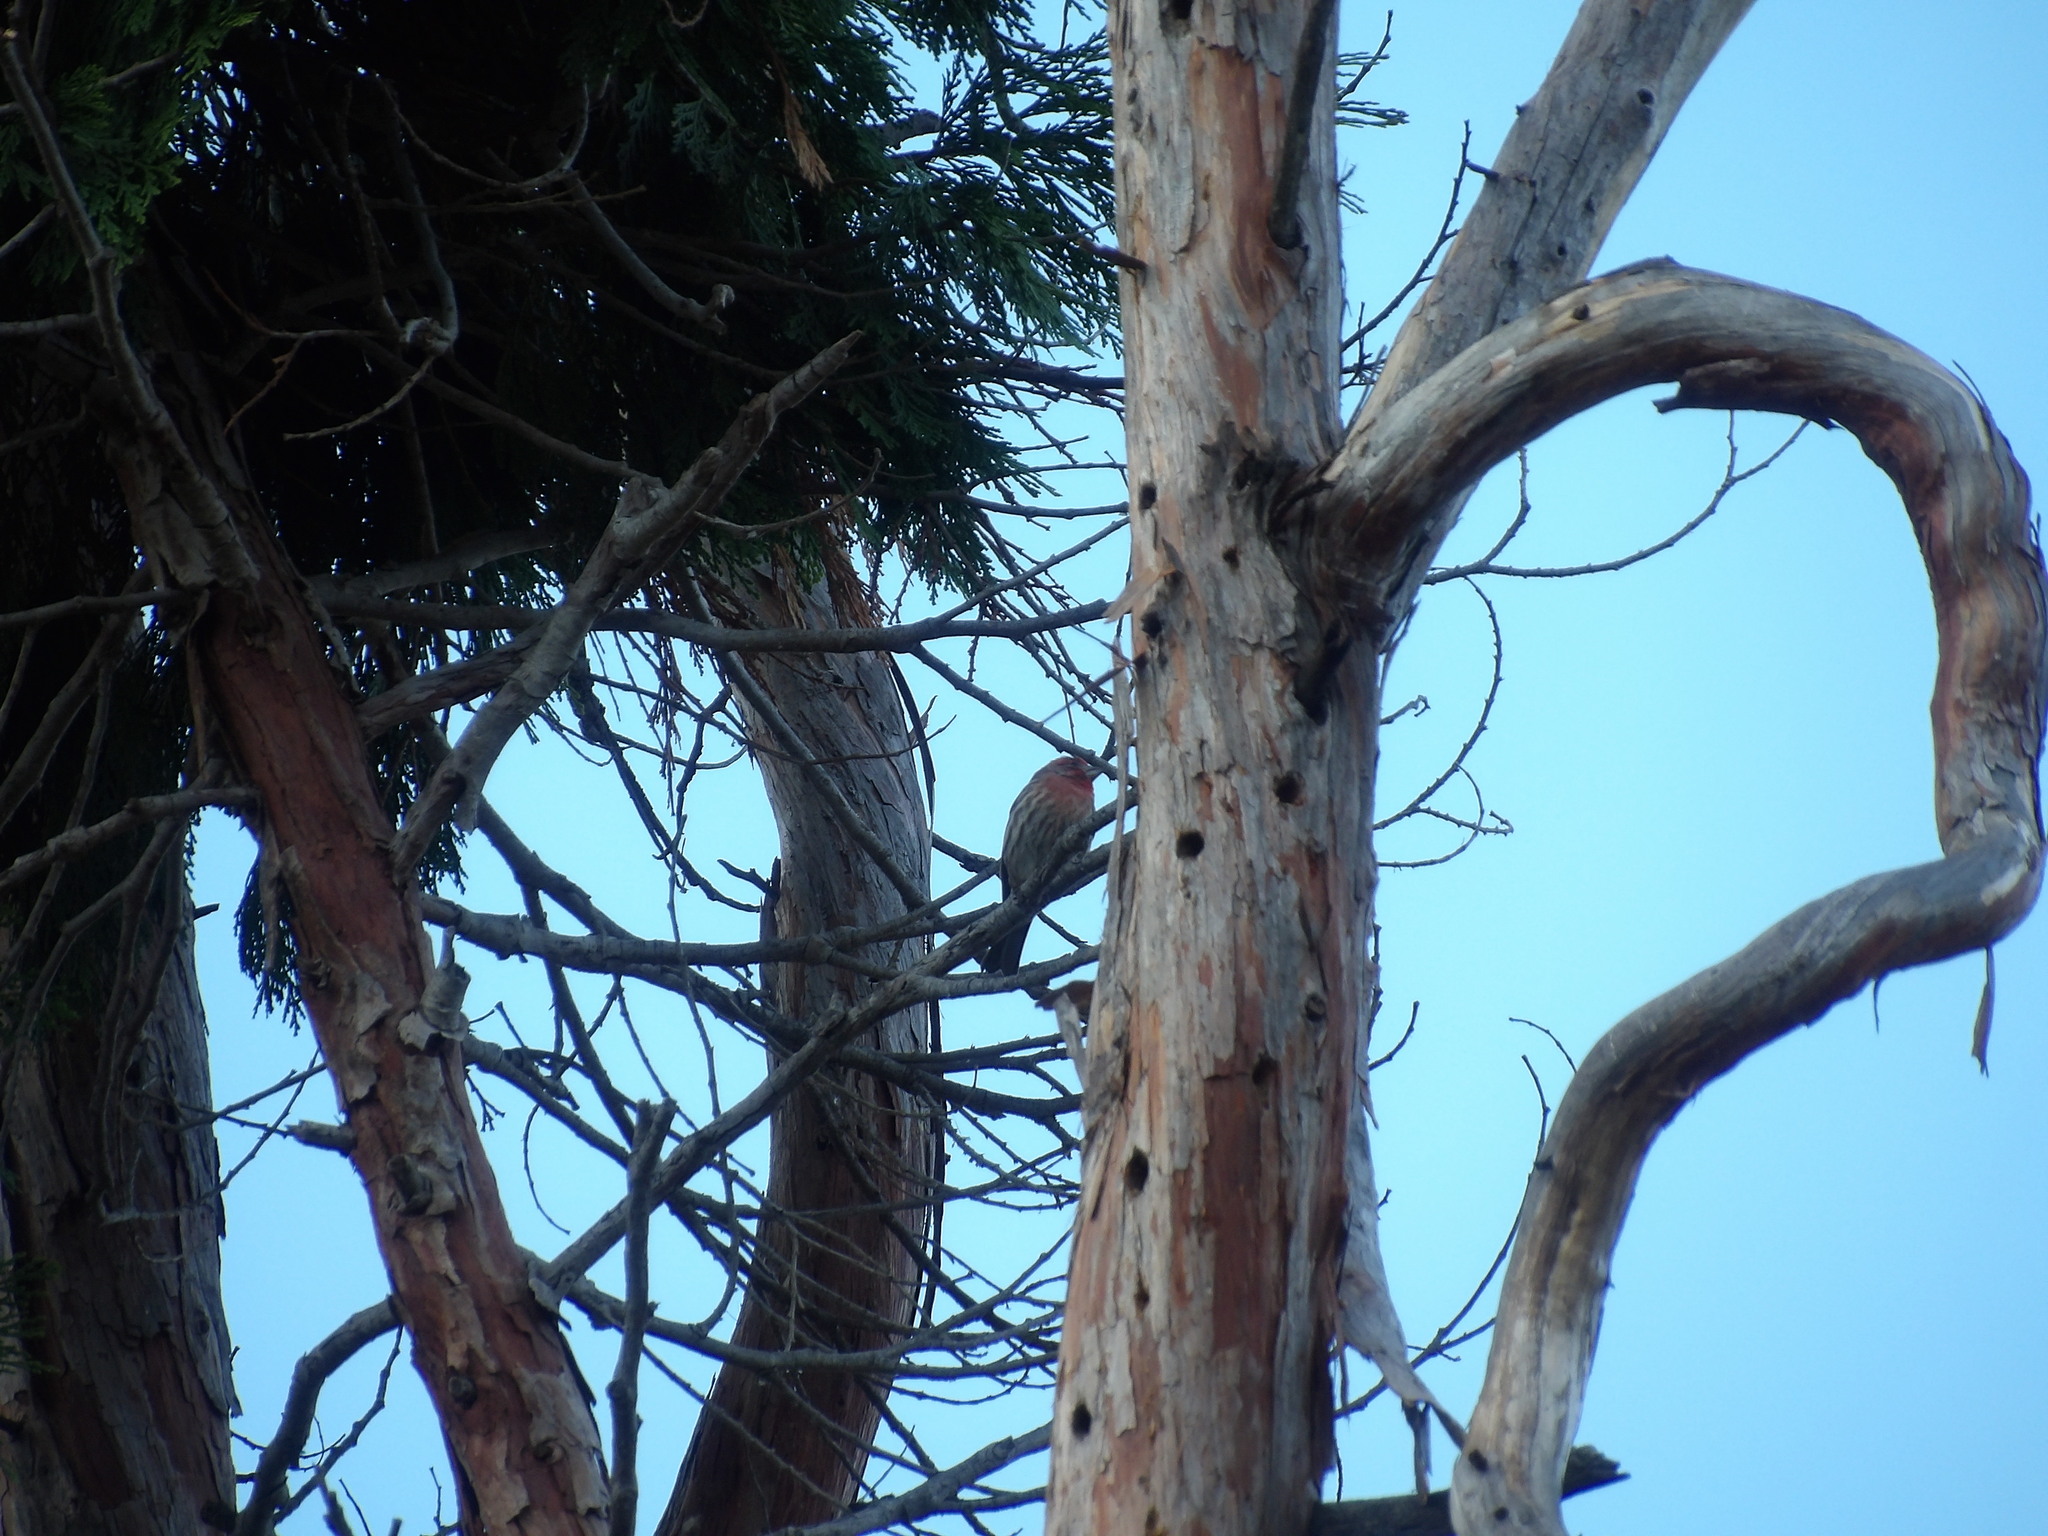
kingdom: Animalia
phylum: Chordata
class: Aves
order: Passeriformes
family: Fringillidae
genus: Haemorhous
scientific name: Haemorhous mexicanus
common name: House finch
